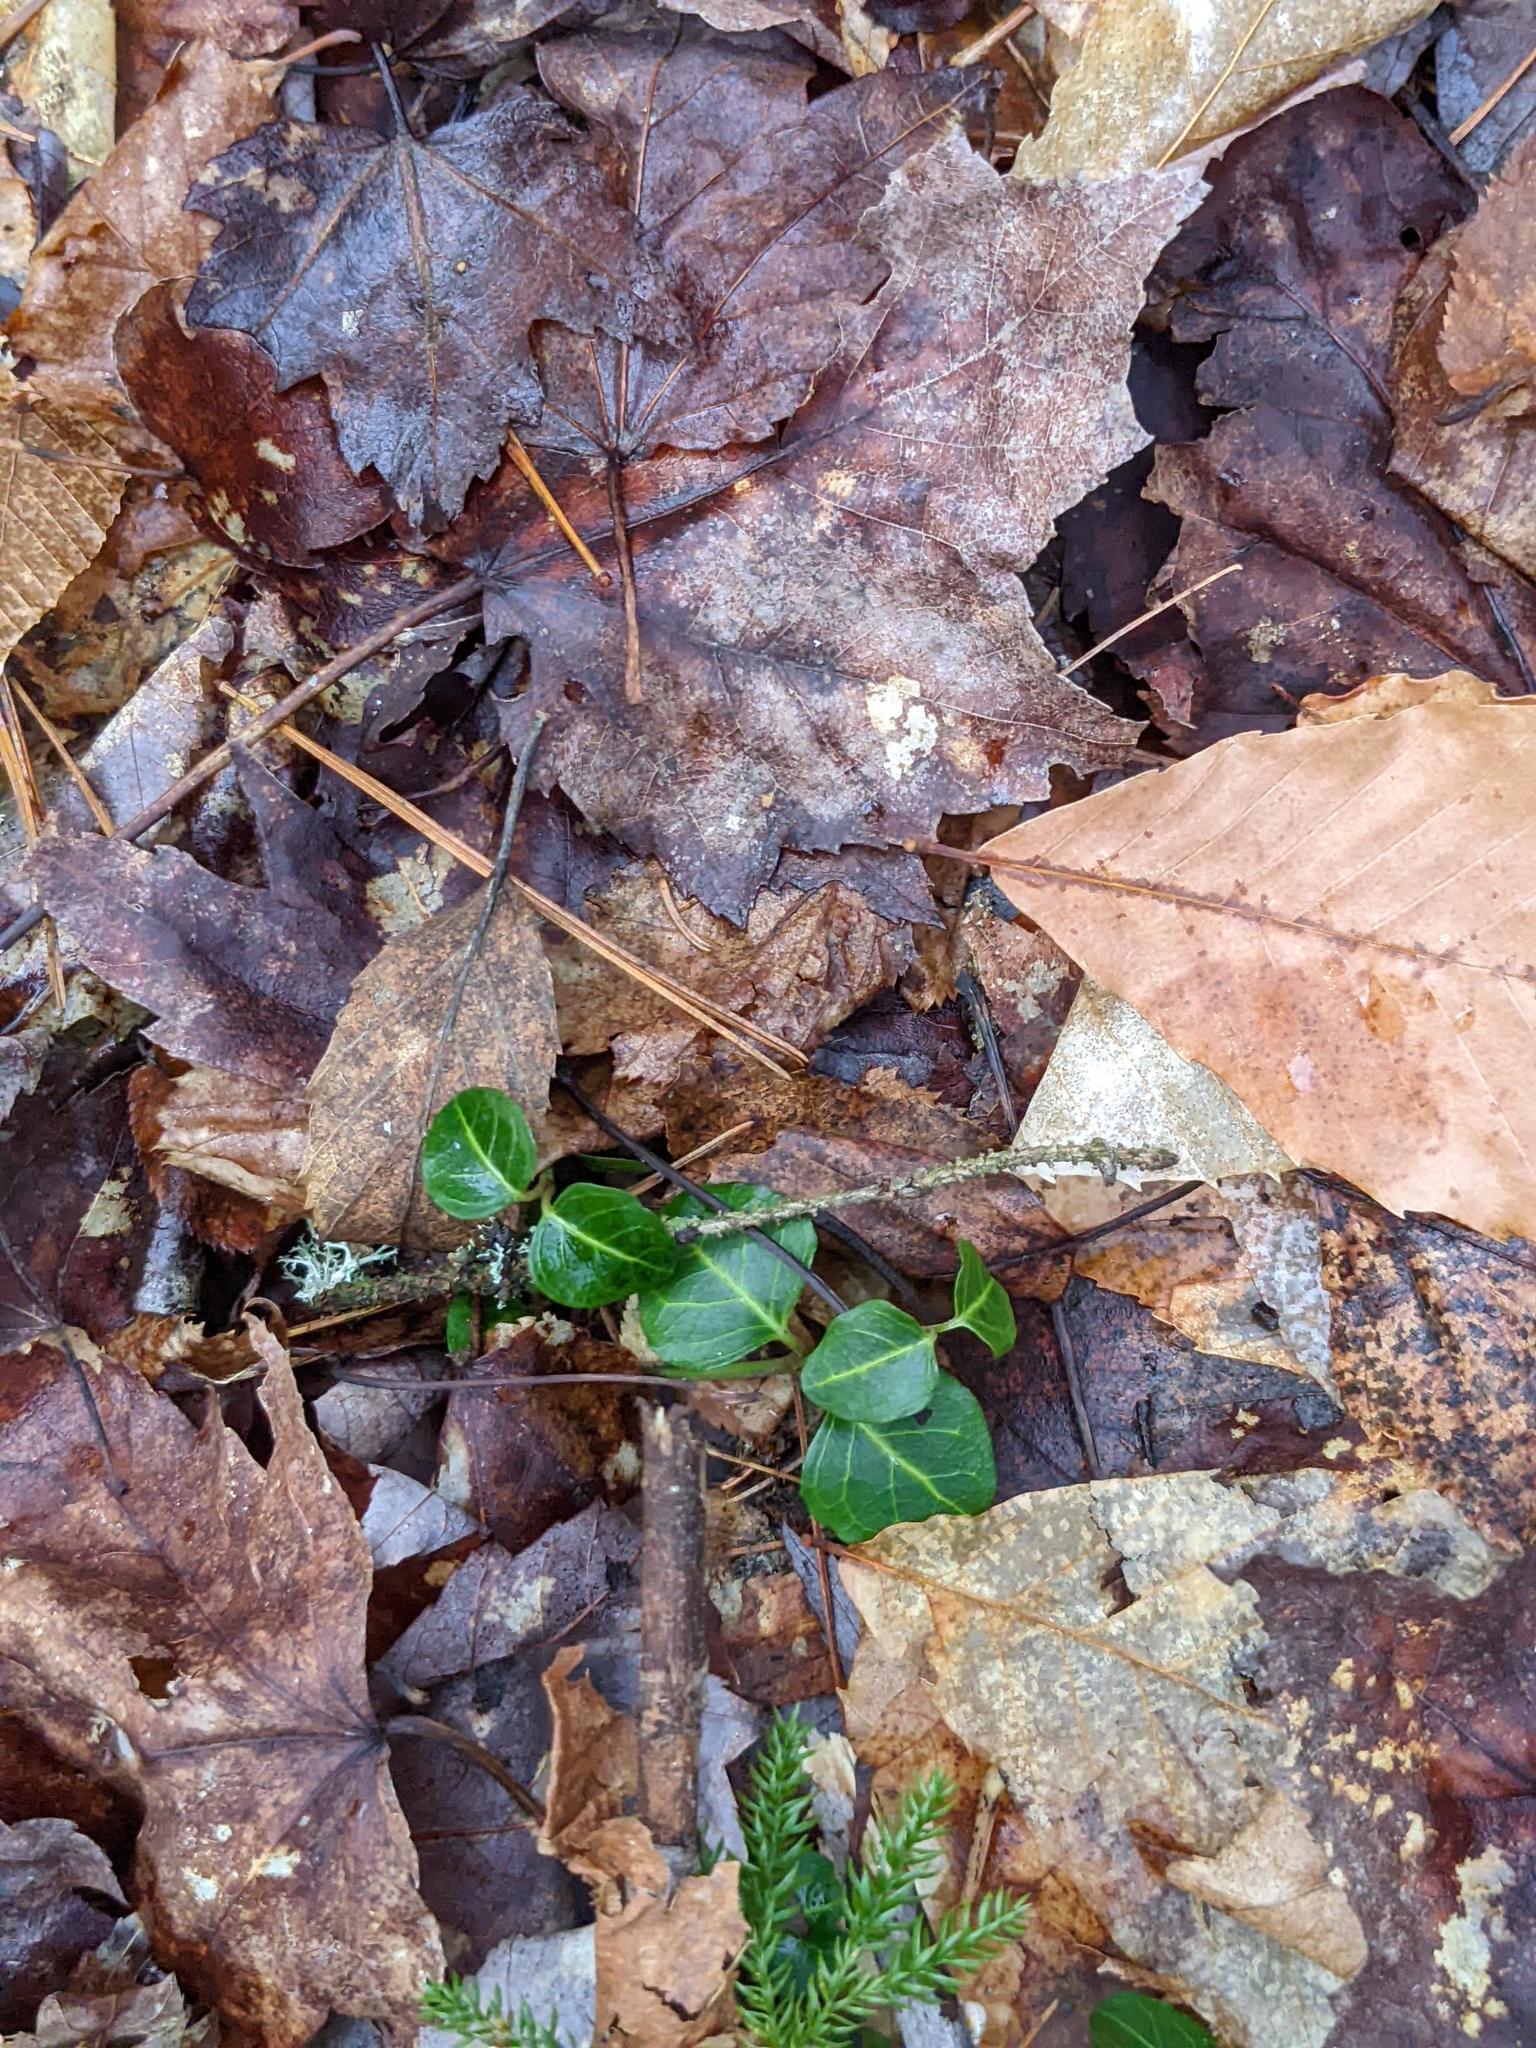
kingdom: Plantae
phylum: Tracheophyta
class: Magnoliopsida
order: Gentianales
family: Rubiaceae
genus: Mitchella
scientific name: Mitchella repens
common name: Partridge-berry
